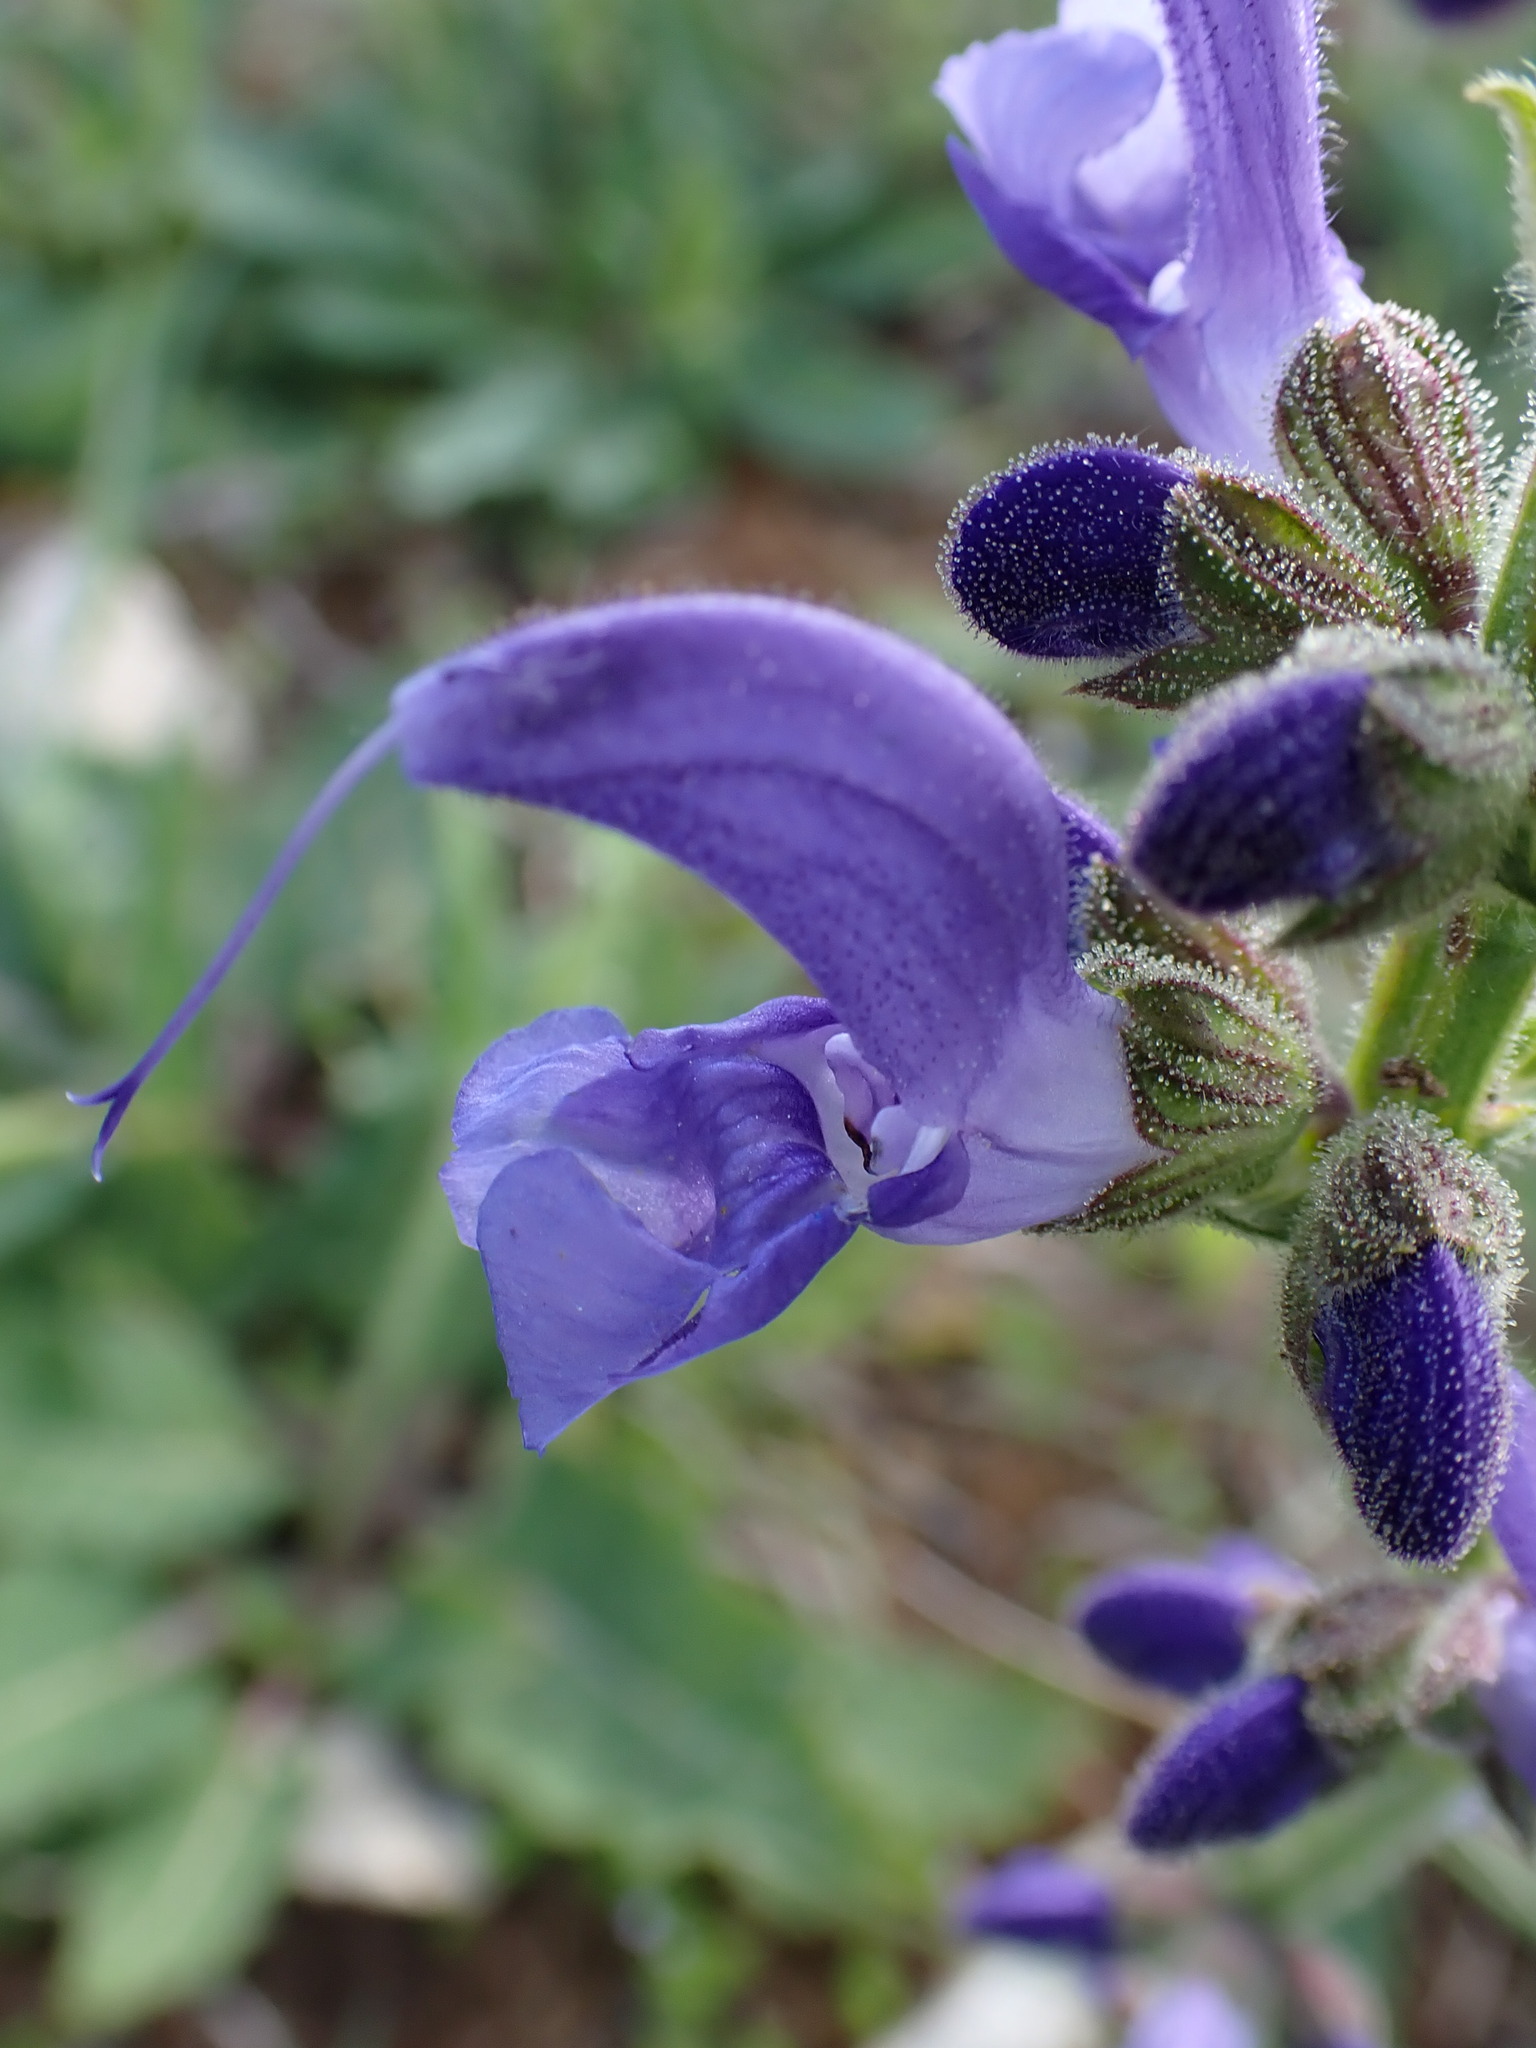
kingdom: Plantae
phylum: Tracheophyta
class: Magnoliopsida
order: Lamiales
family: Lamiaceae
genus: Salvia
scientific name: Salvia pratensis
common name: Meadow sage
